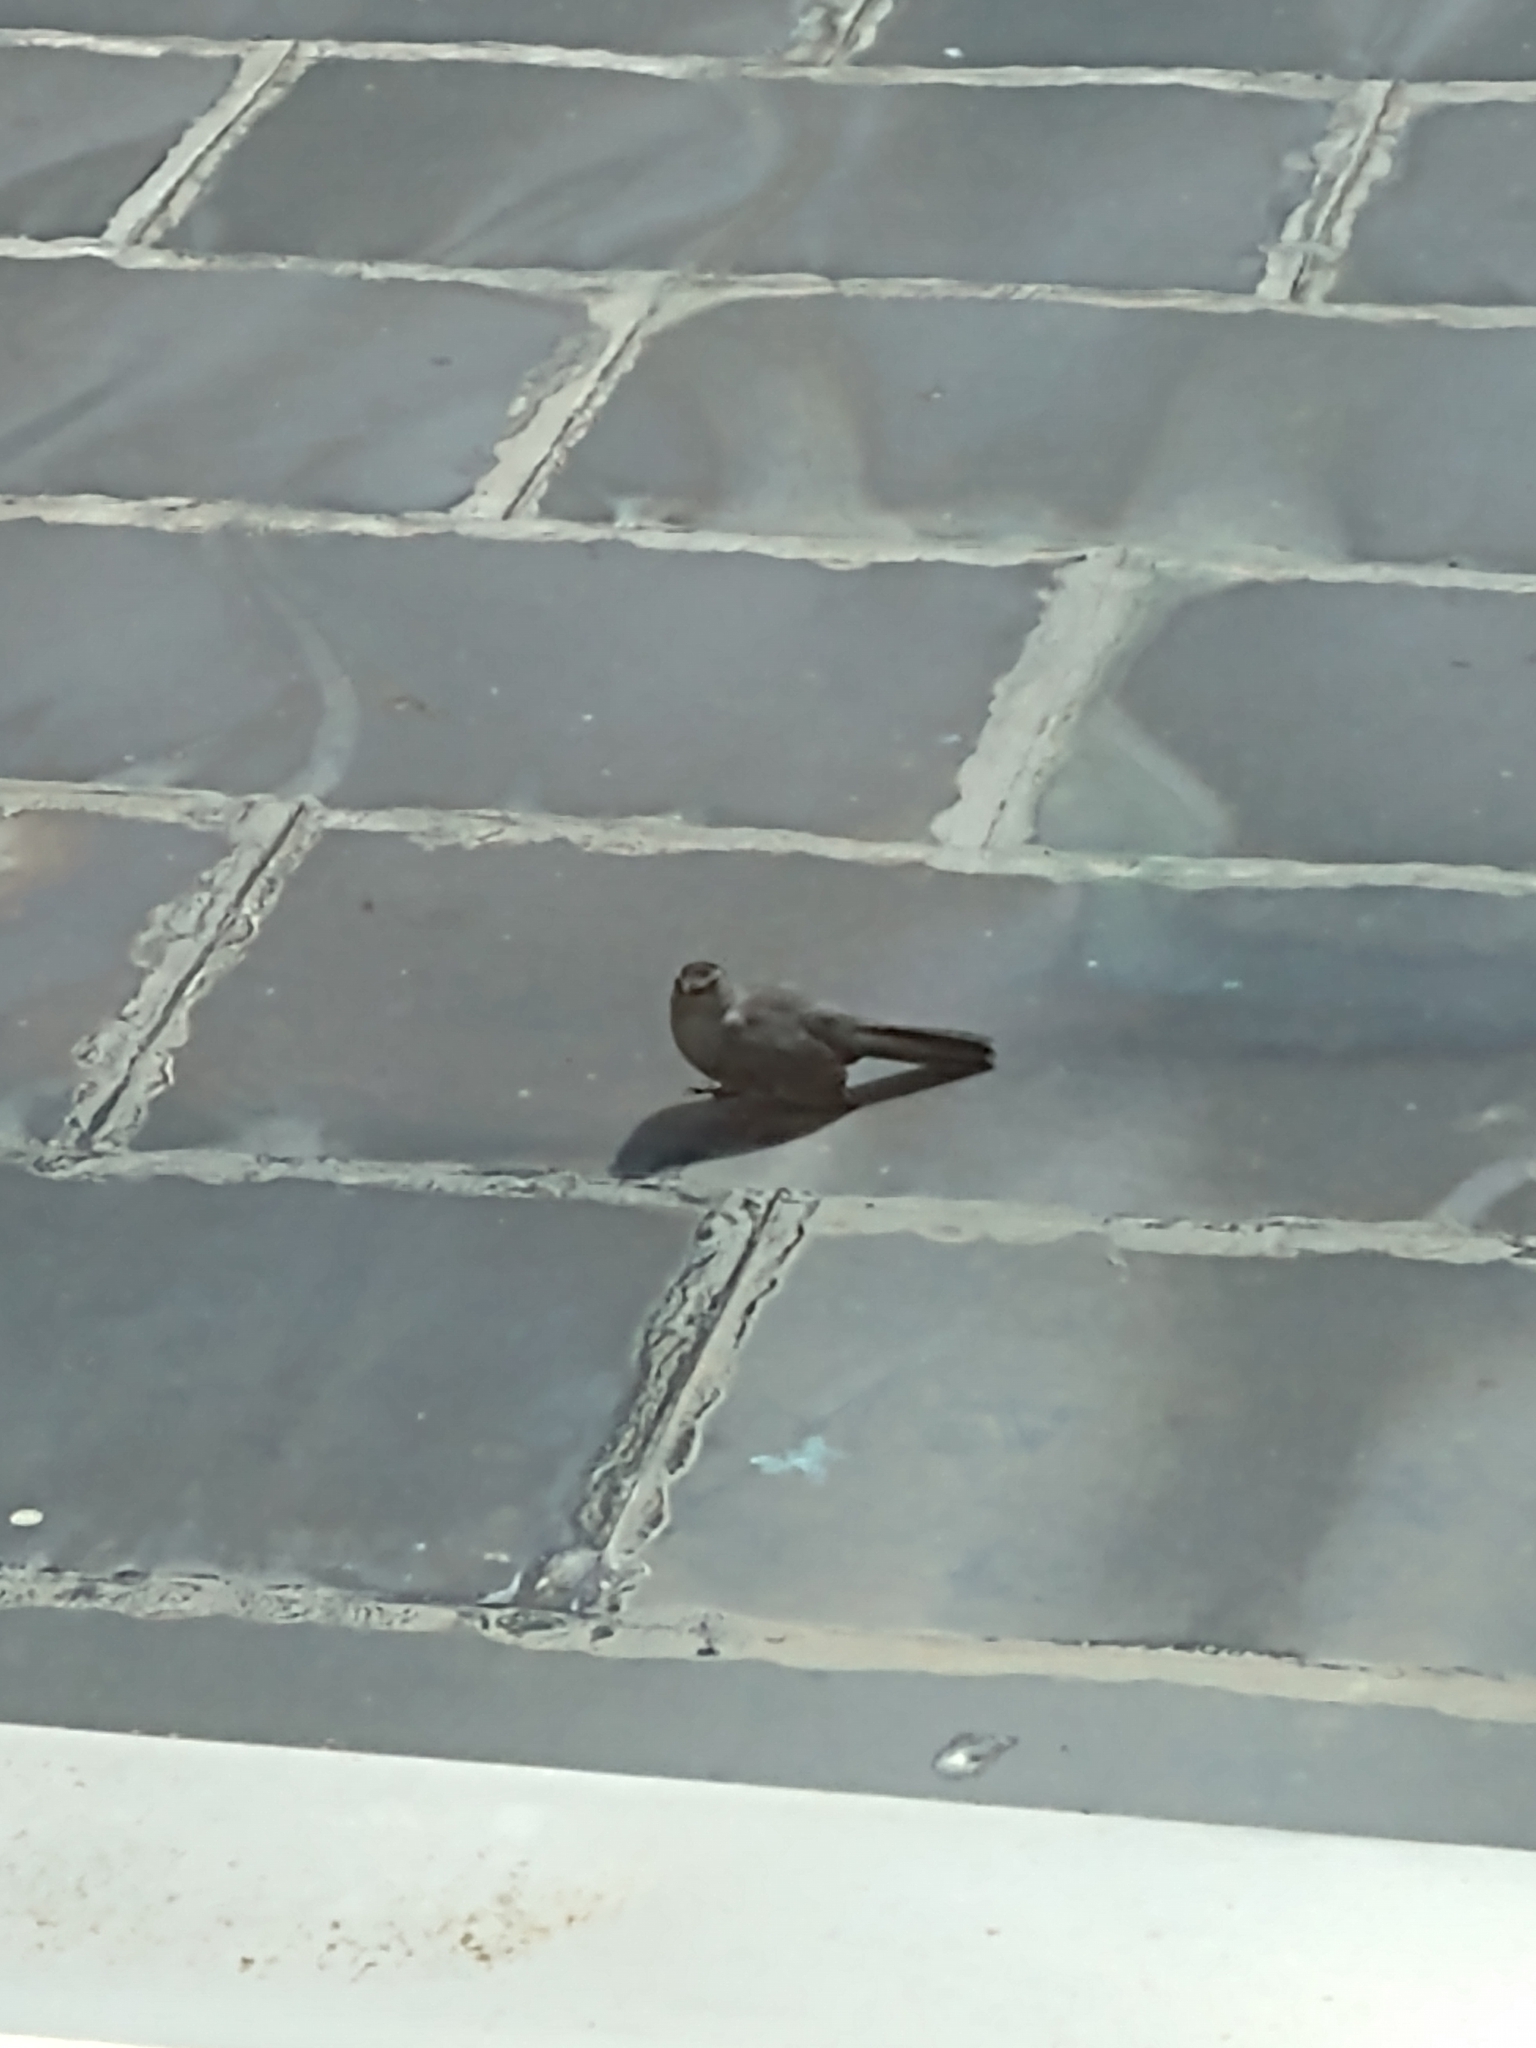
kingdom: Animalia
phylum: Chordata
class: Aves
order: Passeriformes
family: Mimidae
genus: Dumetella
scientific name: Dumetella carolinensis
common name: Gray catbird
